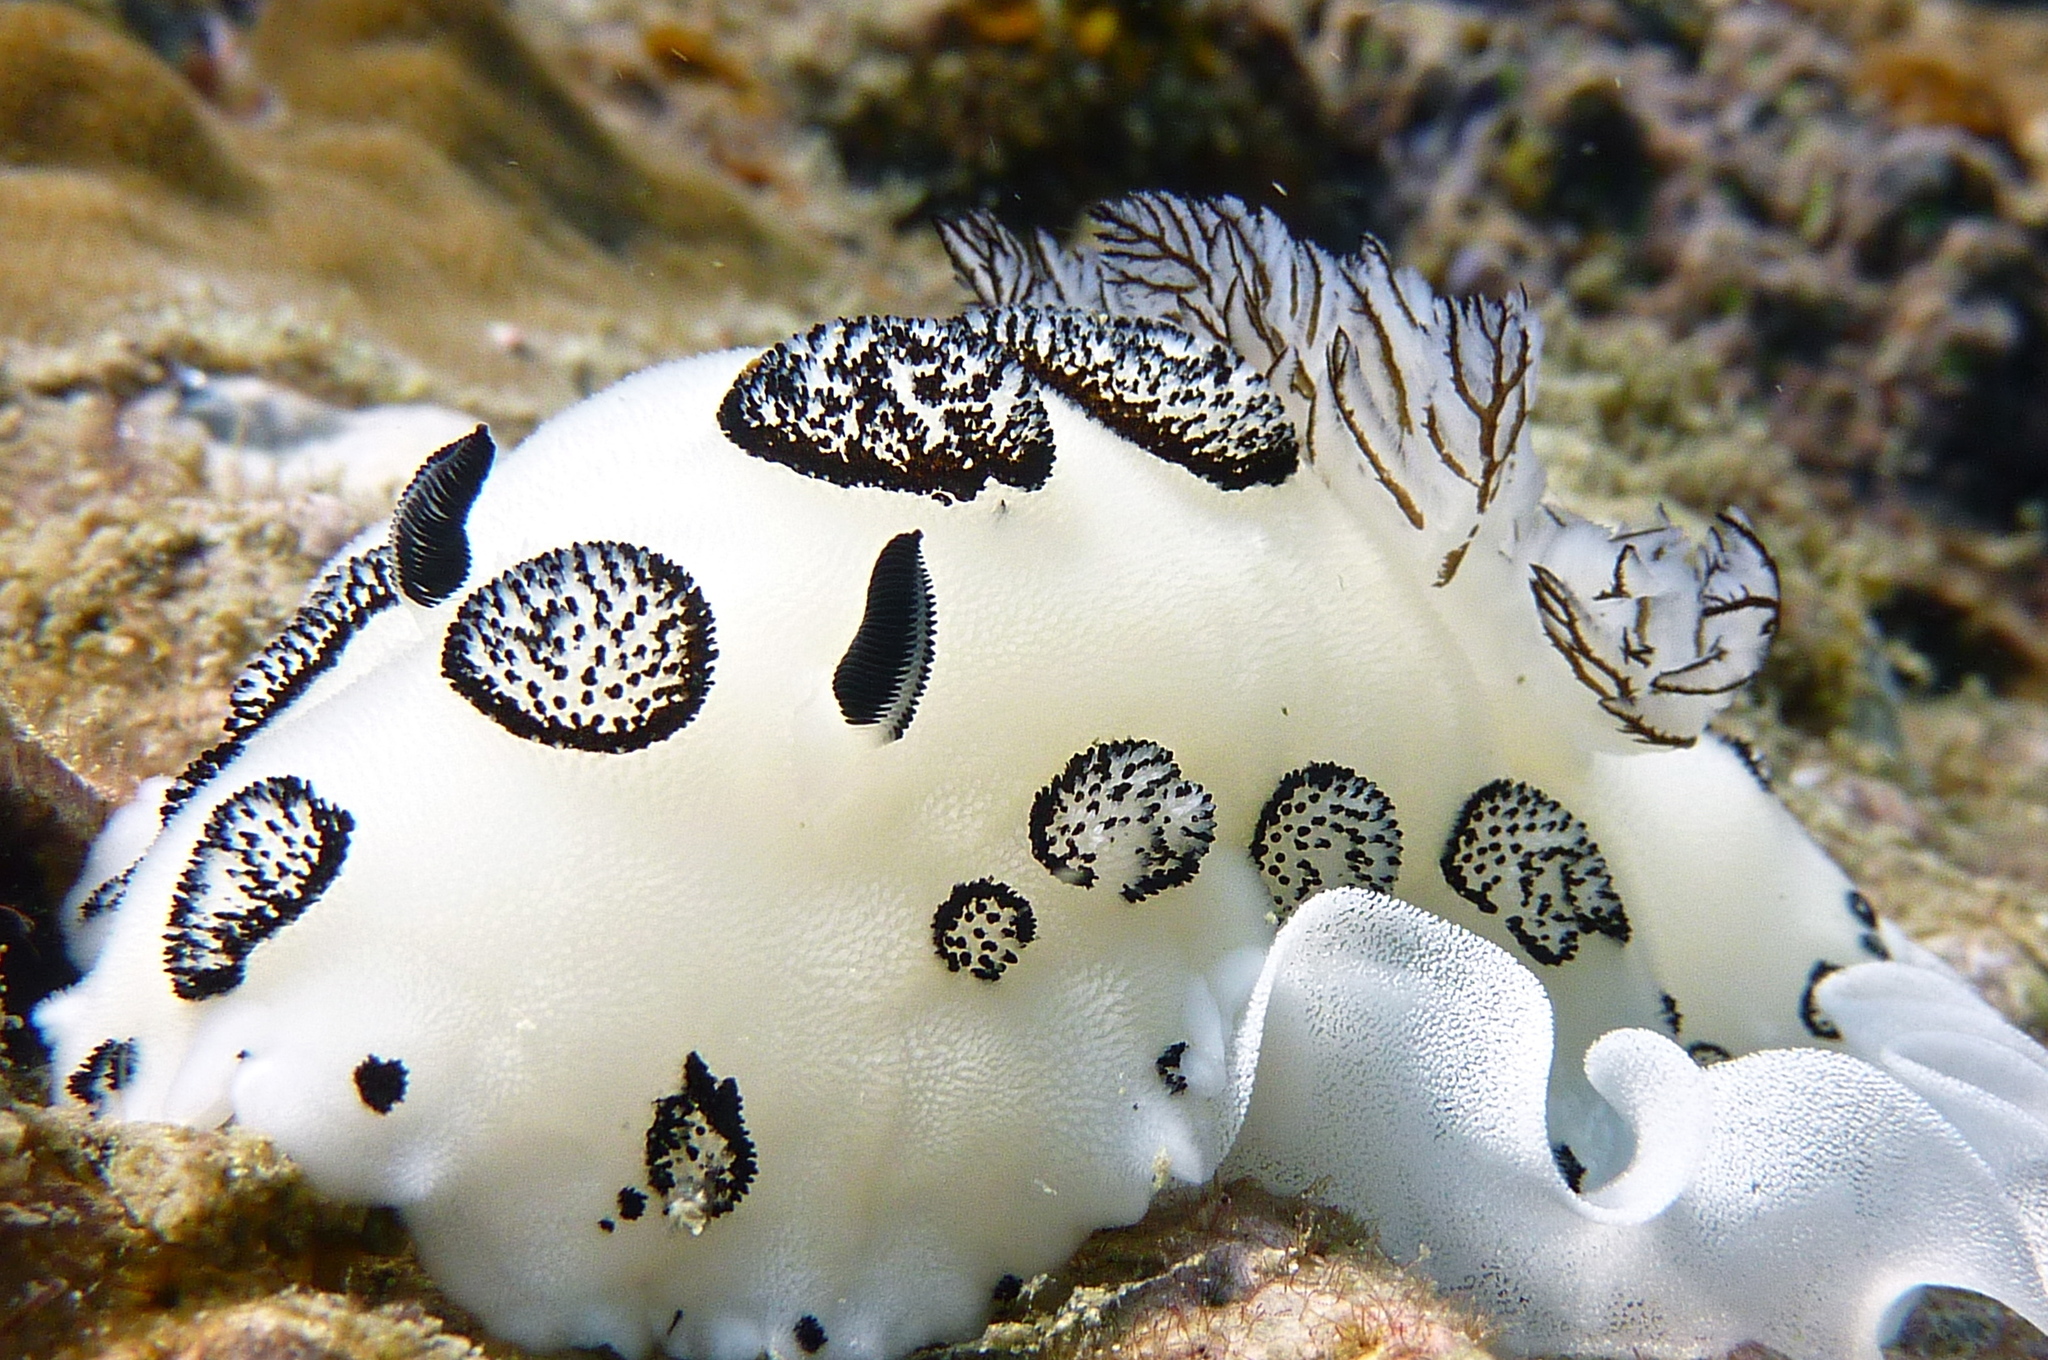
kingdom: Animalia
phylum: Mollusca
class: Gastropoda
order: Nudibranchia
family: Discodorididae
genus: Jorunna
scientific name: Jorunna funebris
